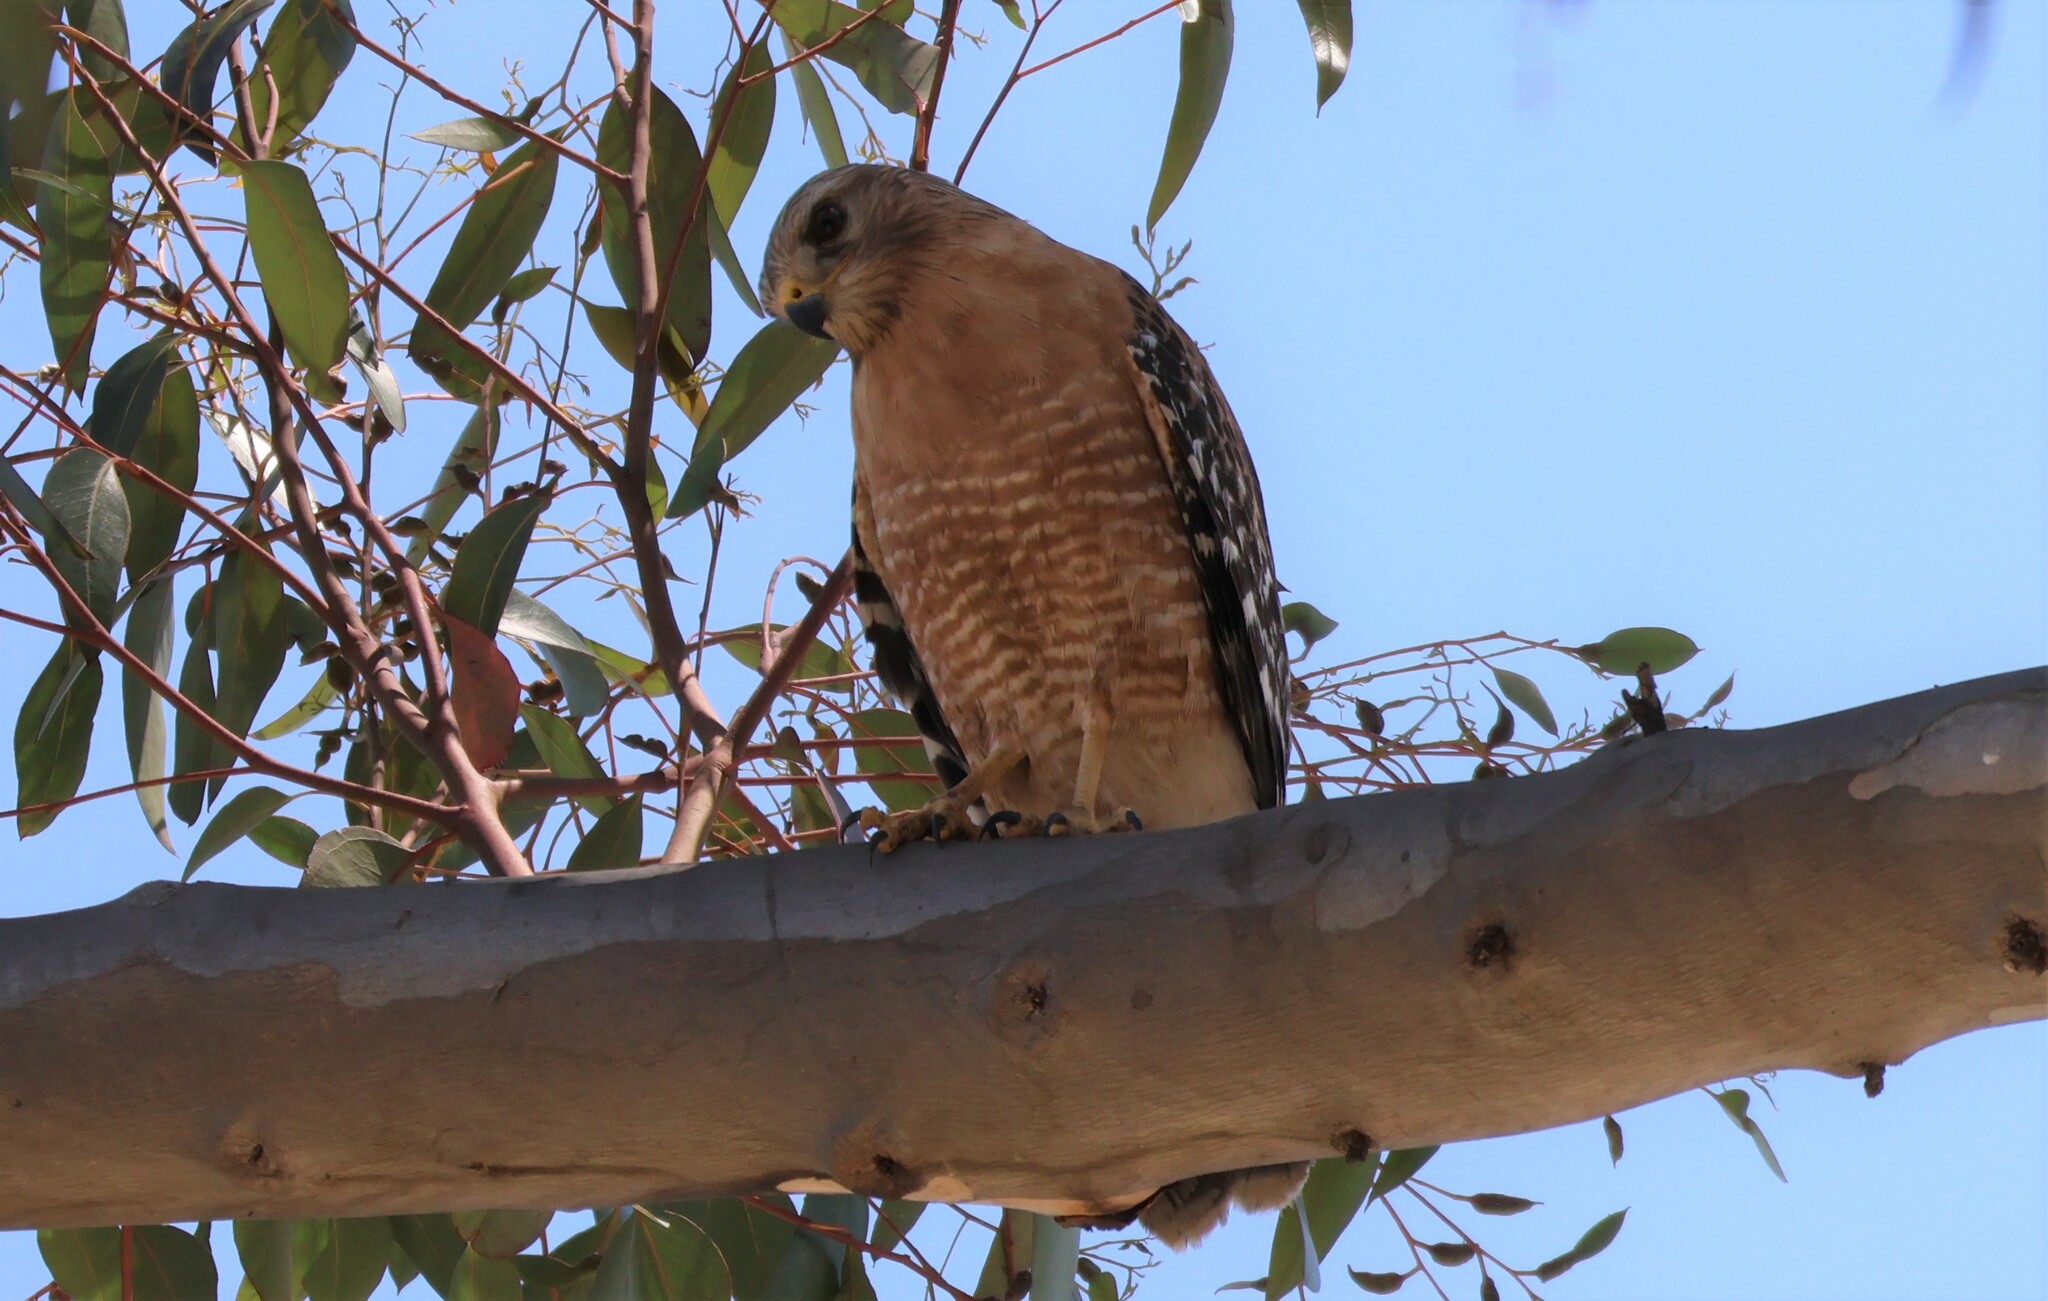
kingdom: Animalia
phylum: Chordata
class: Aves
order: Accipitriformes
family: Accipitridae
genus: Buteo
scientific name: Buteo lineatus
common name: Red-shouldered hawk
